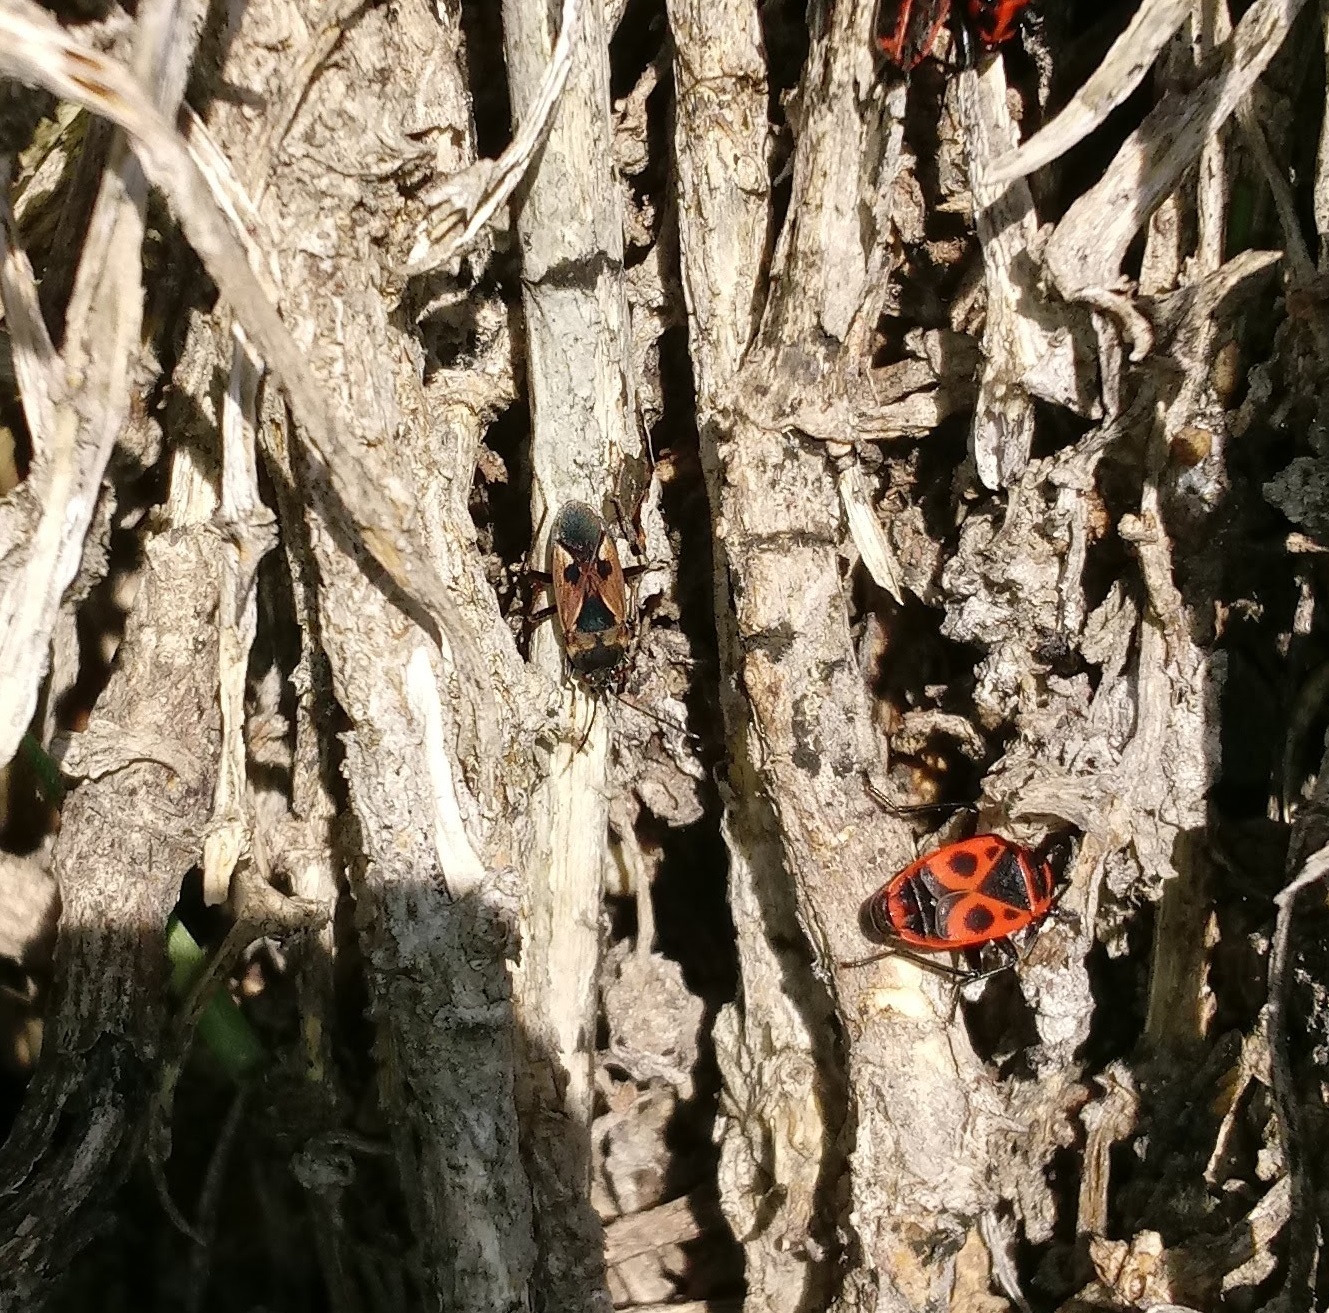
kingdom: Animalia
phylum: Arthropoda
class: Insecta
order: Hemiptera
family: Rhyparochromidae
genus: Rhyparochromus
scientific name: Rhyparochromus vulgaris
